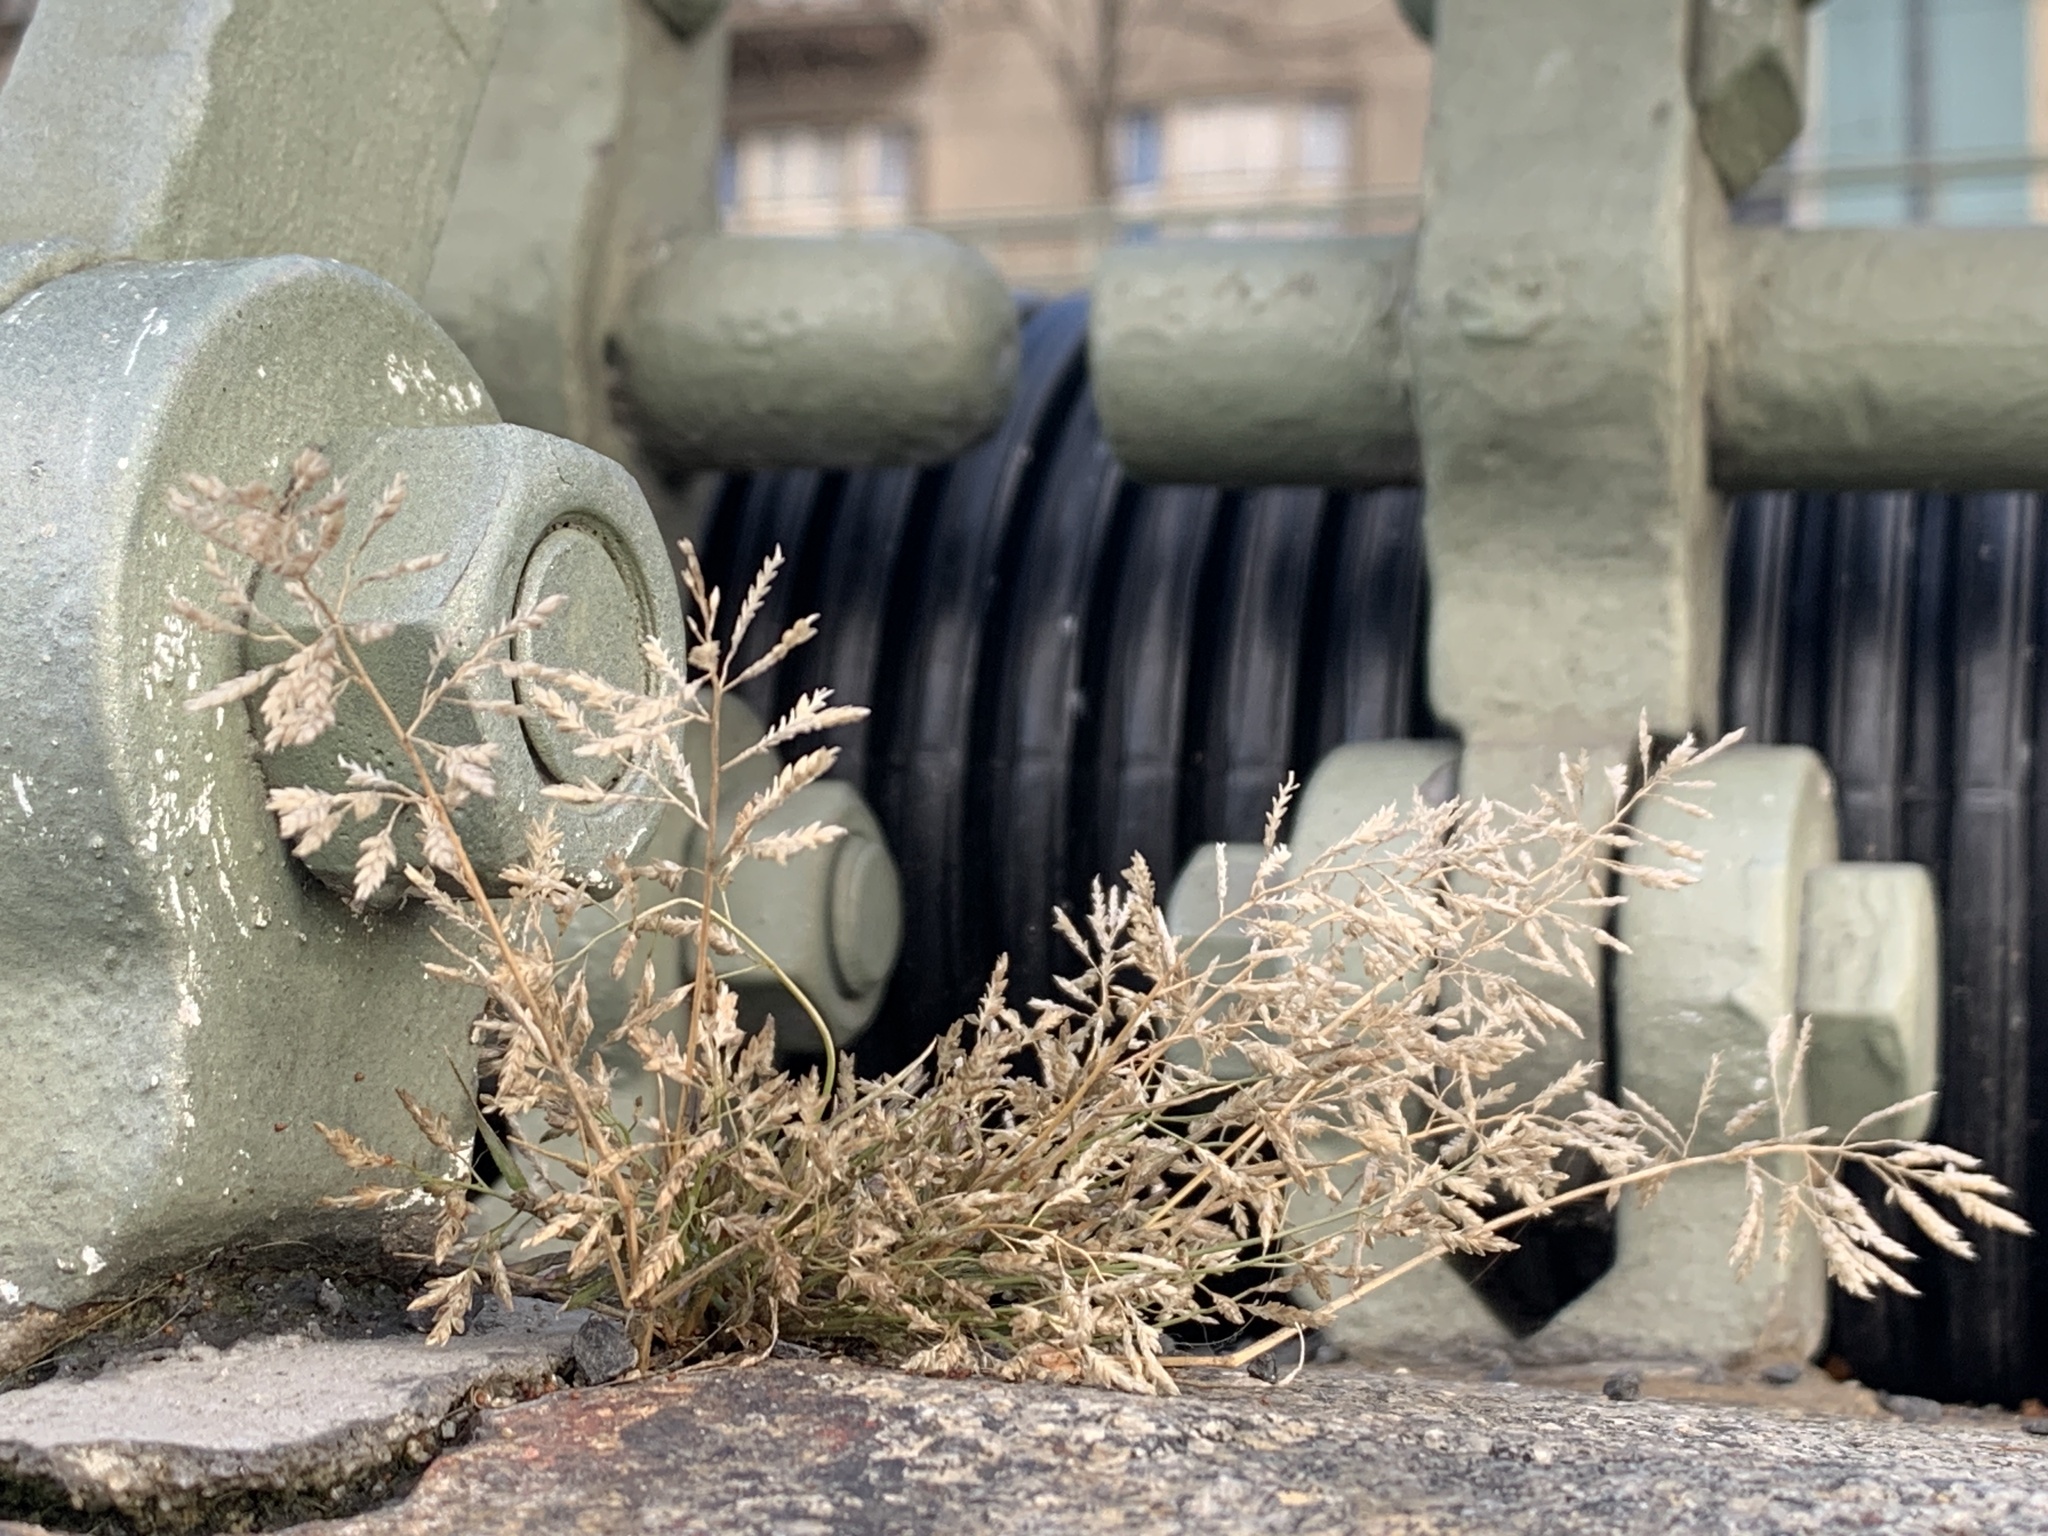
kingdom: Plantae
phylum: Tracheophyta
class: Liliopsida
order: Poales
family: Poaceae
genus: Eragrostis
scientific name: Eragrostis minor
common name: Small love-grass
